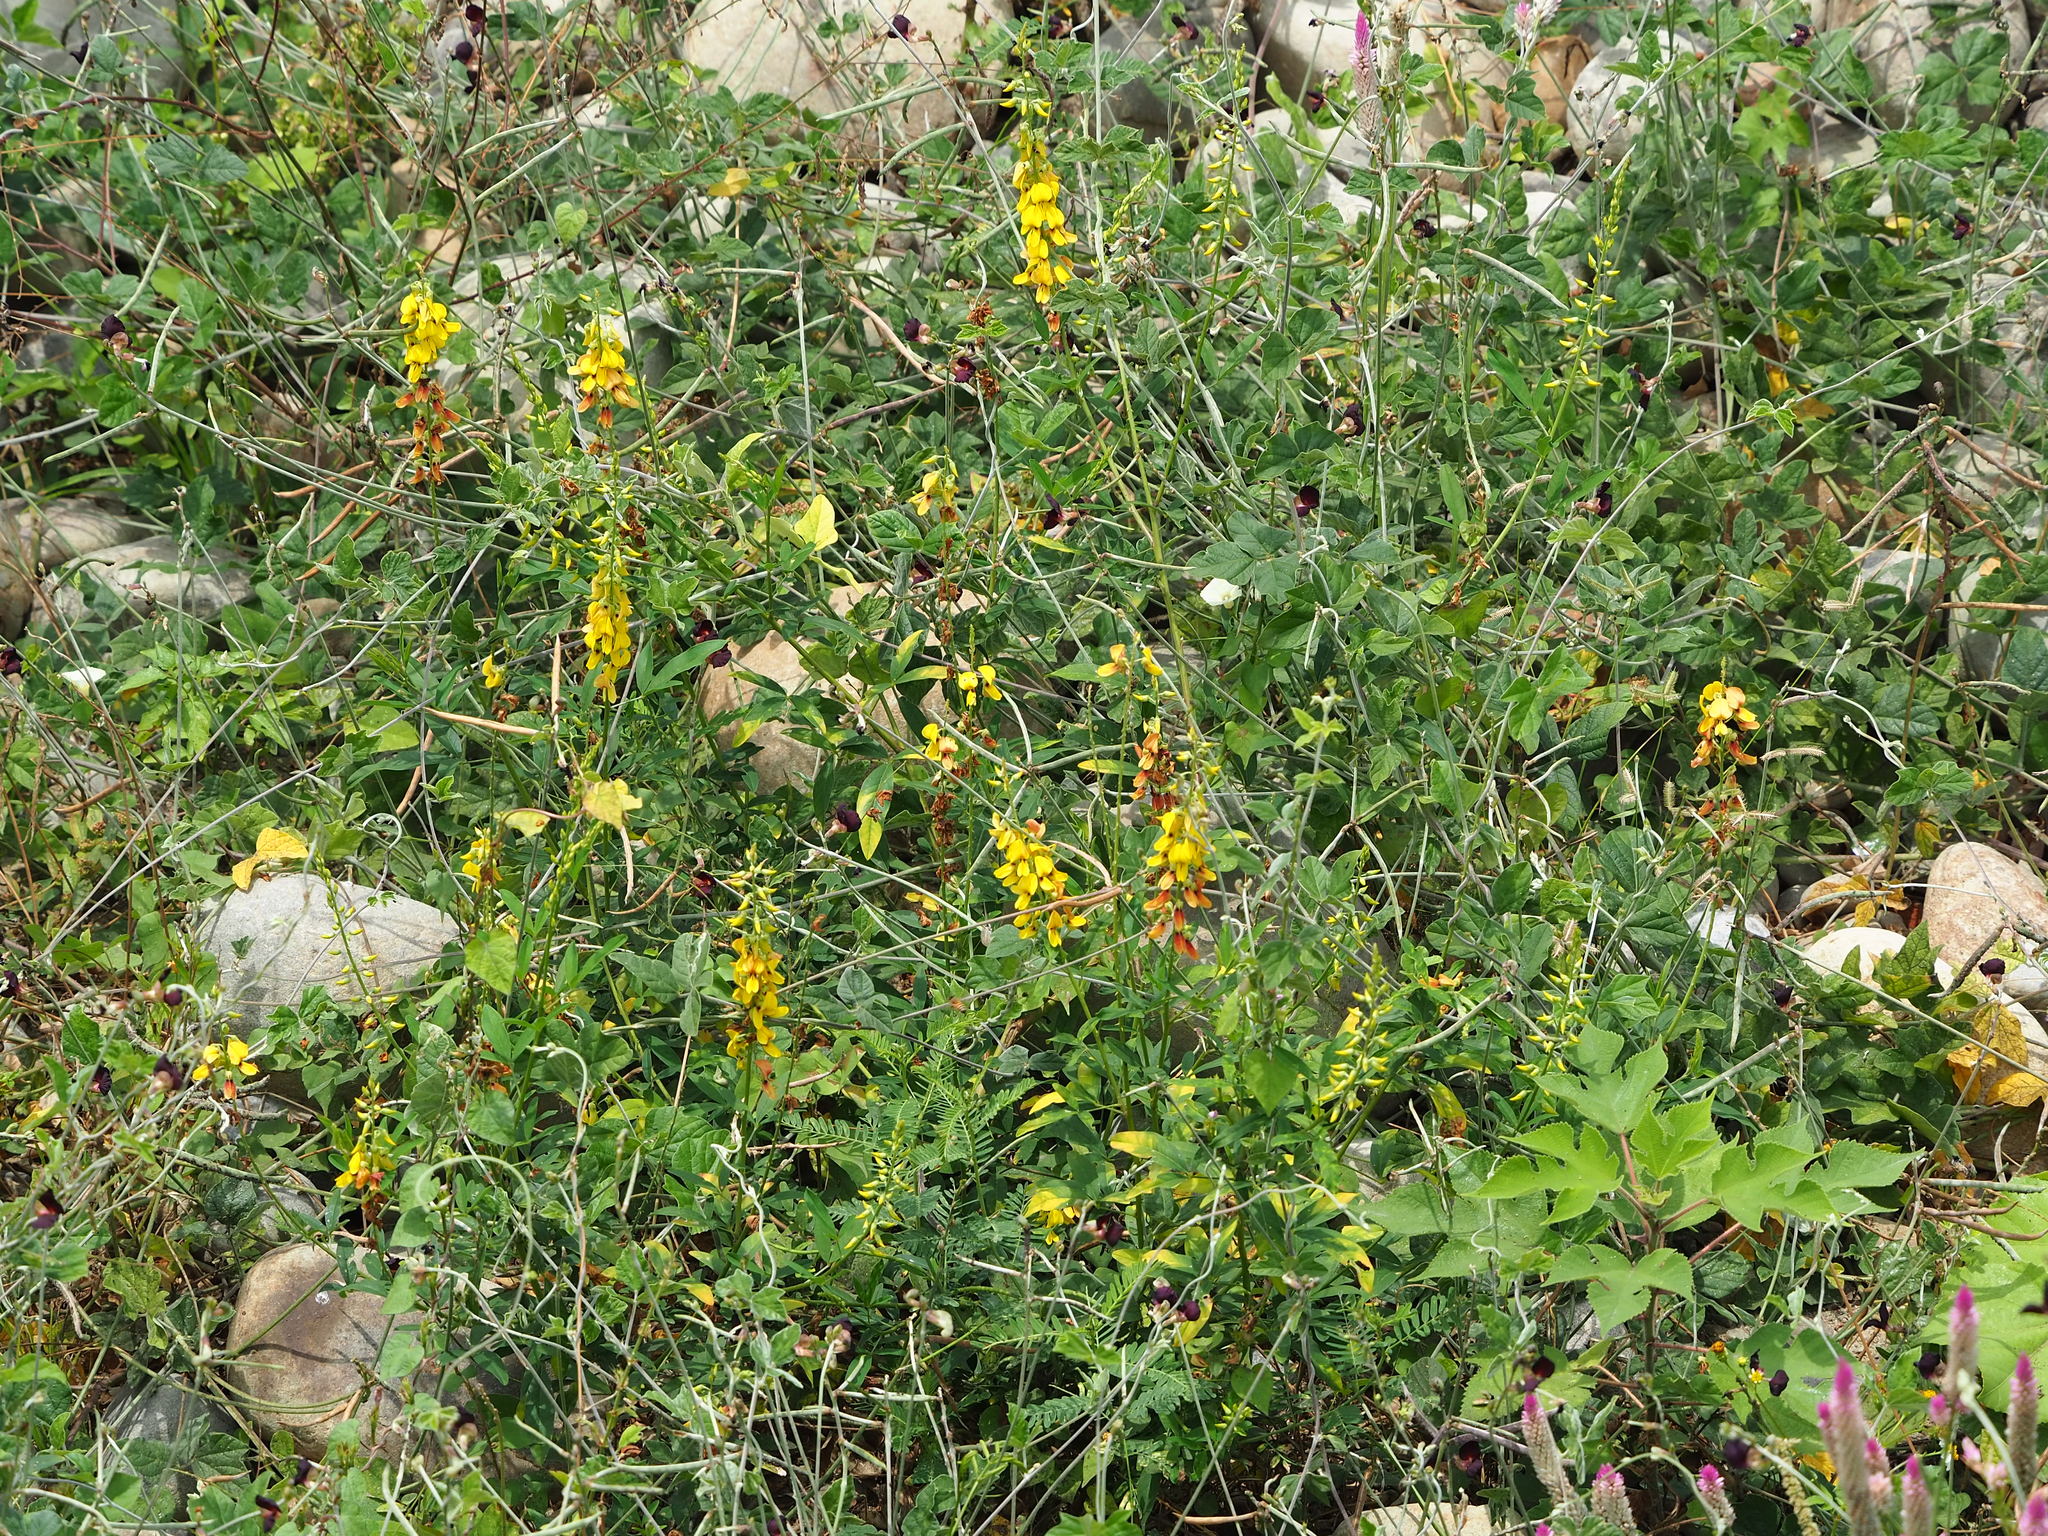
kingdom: Plantae
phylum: Tracheophyta
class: Magnoliopsida
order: Fabales
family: Fabaceae
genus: Crotalaria
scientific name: Crotalaria trichotoma
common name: West indian rattlebox
